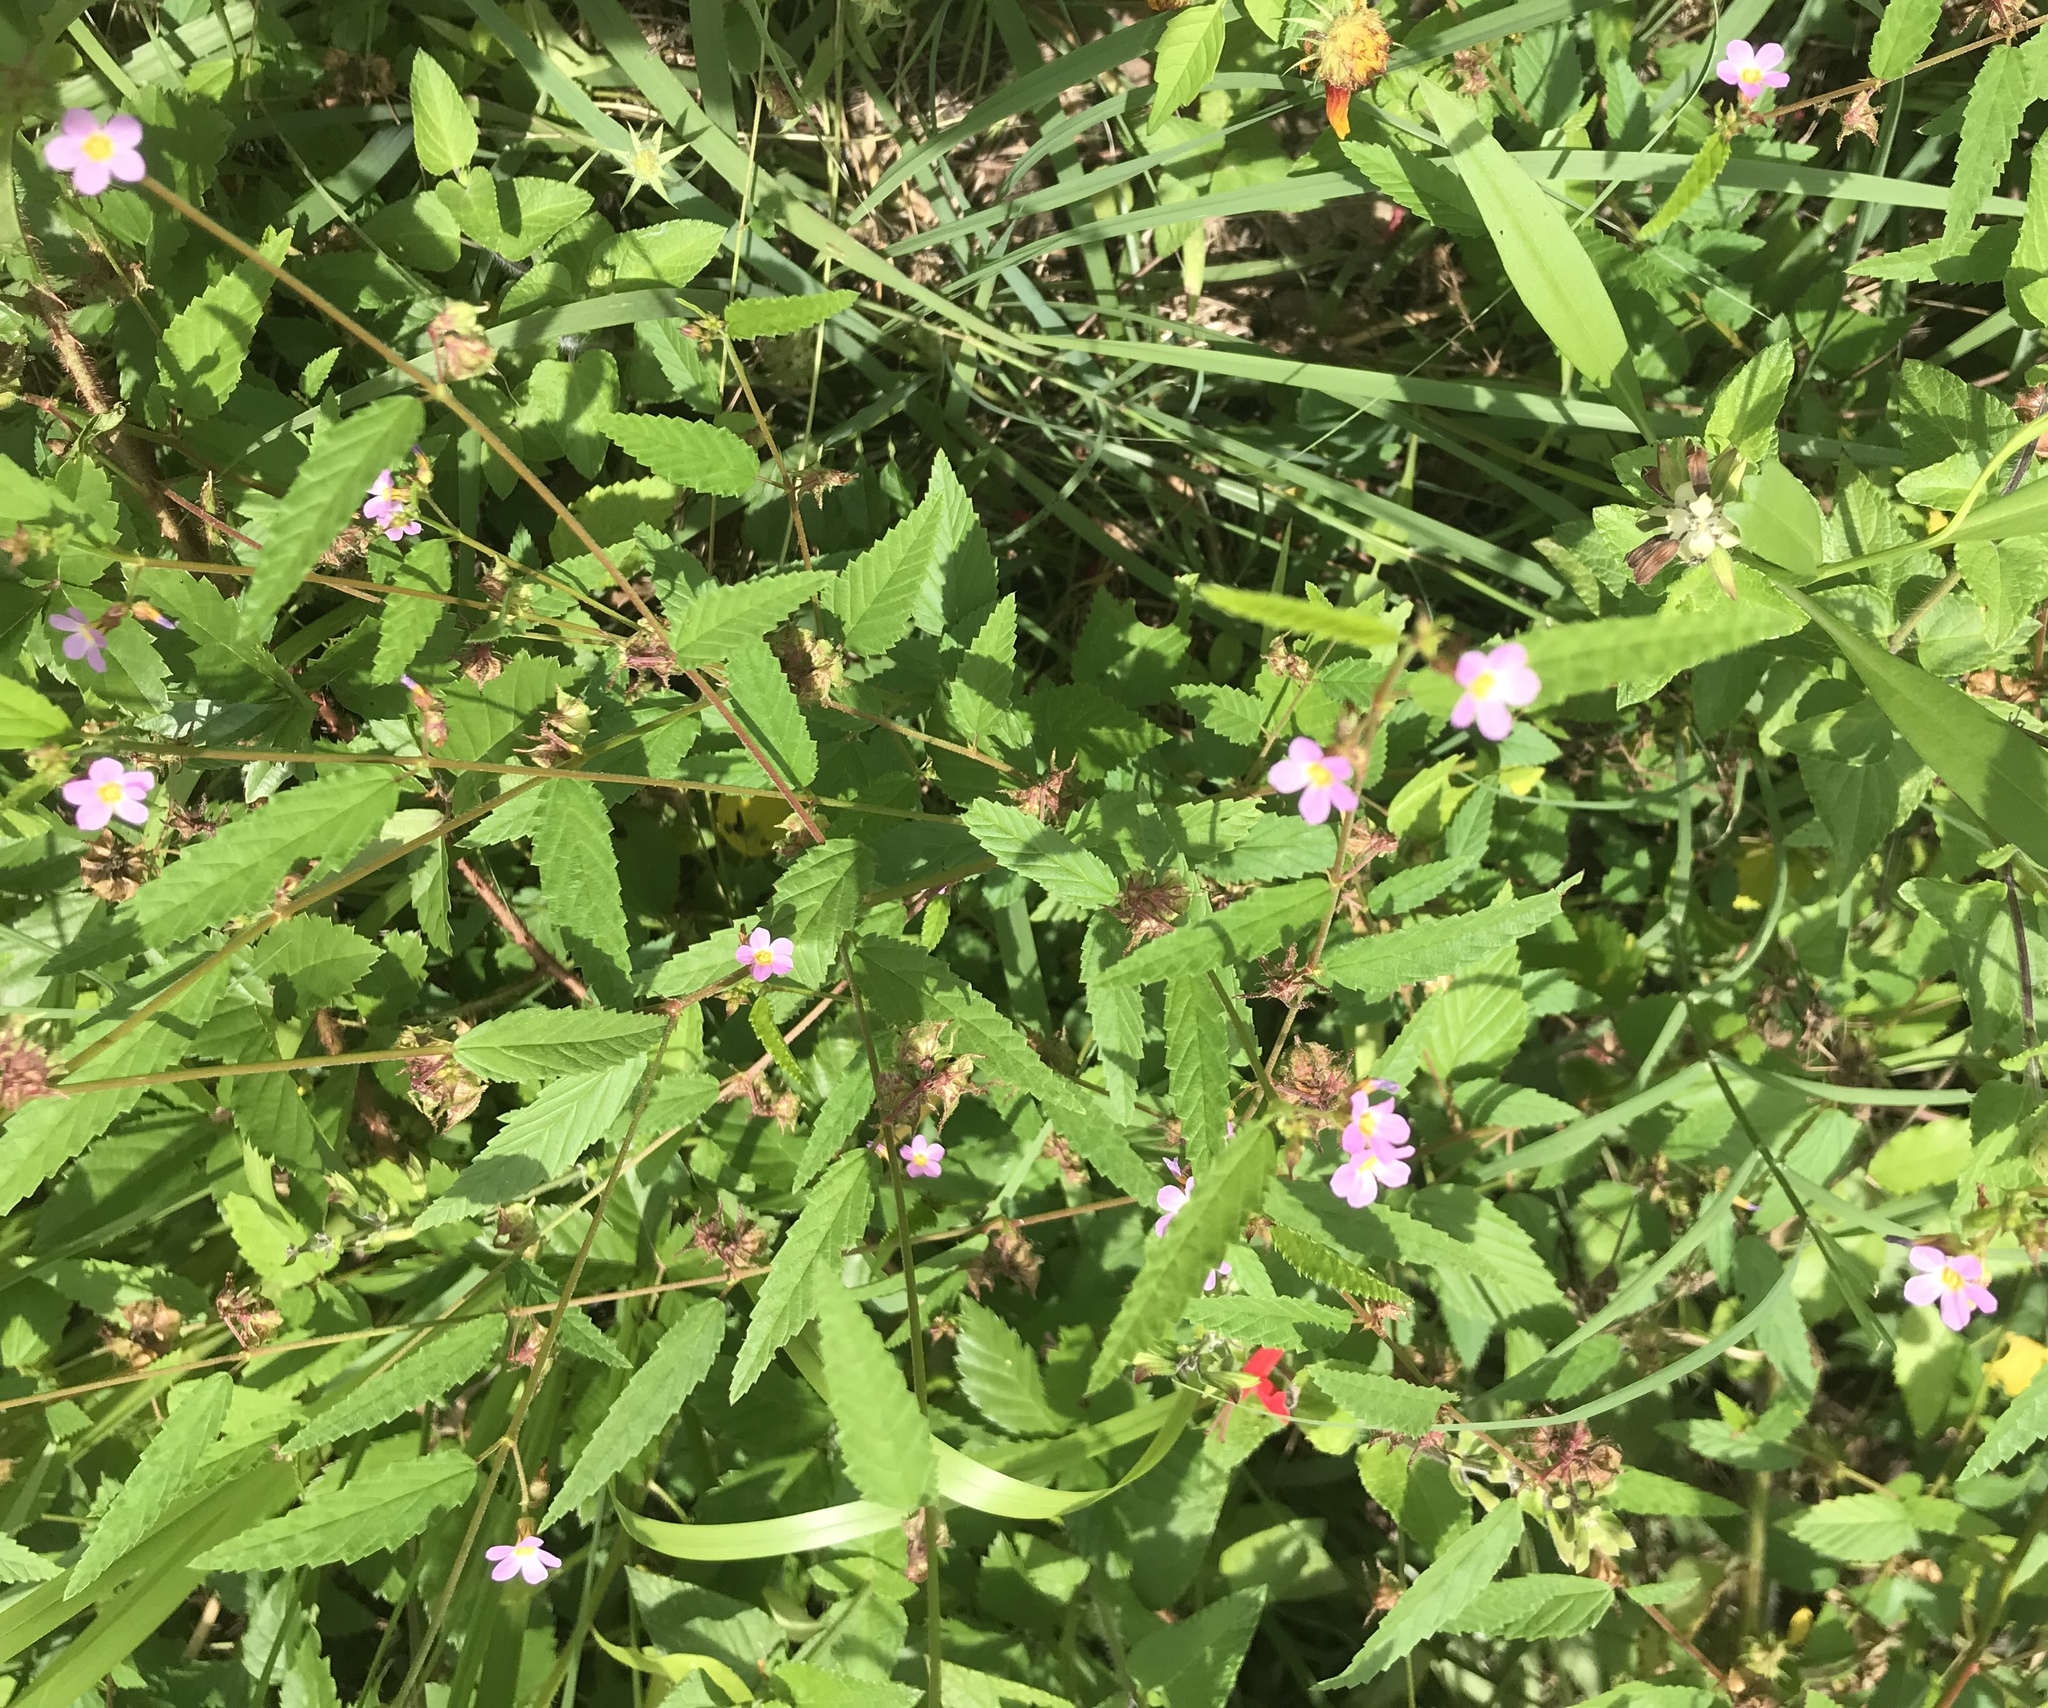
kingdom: Plantae
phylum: Tracheophyta
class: Magnoliopsida
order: Malvales
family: Malvaceae
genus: Melochia
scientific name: Melochia pyramidata
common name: Pyramidflower
